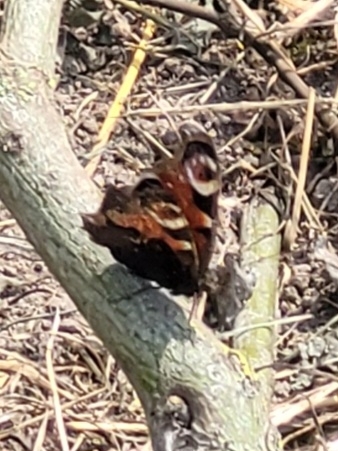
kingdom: Animalia
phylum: Arthropoda
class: Insecta
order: Lepidoptera
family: Nymphalidae
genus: Aglais
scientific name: Aglais io
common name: Peacock
